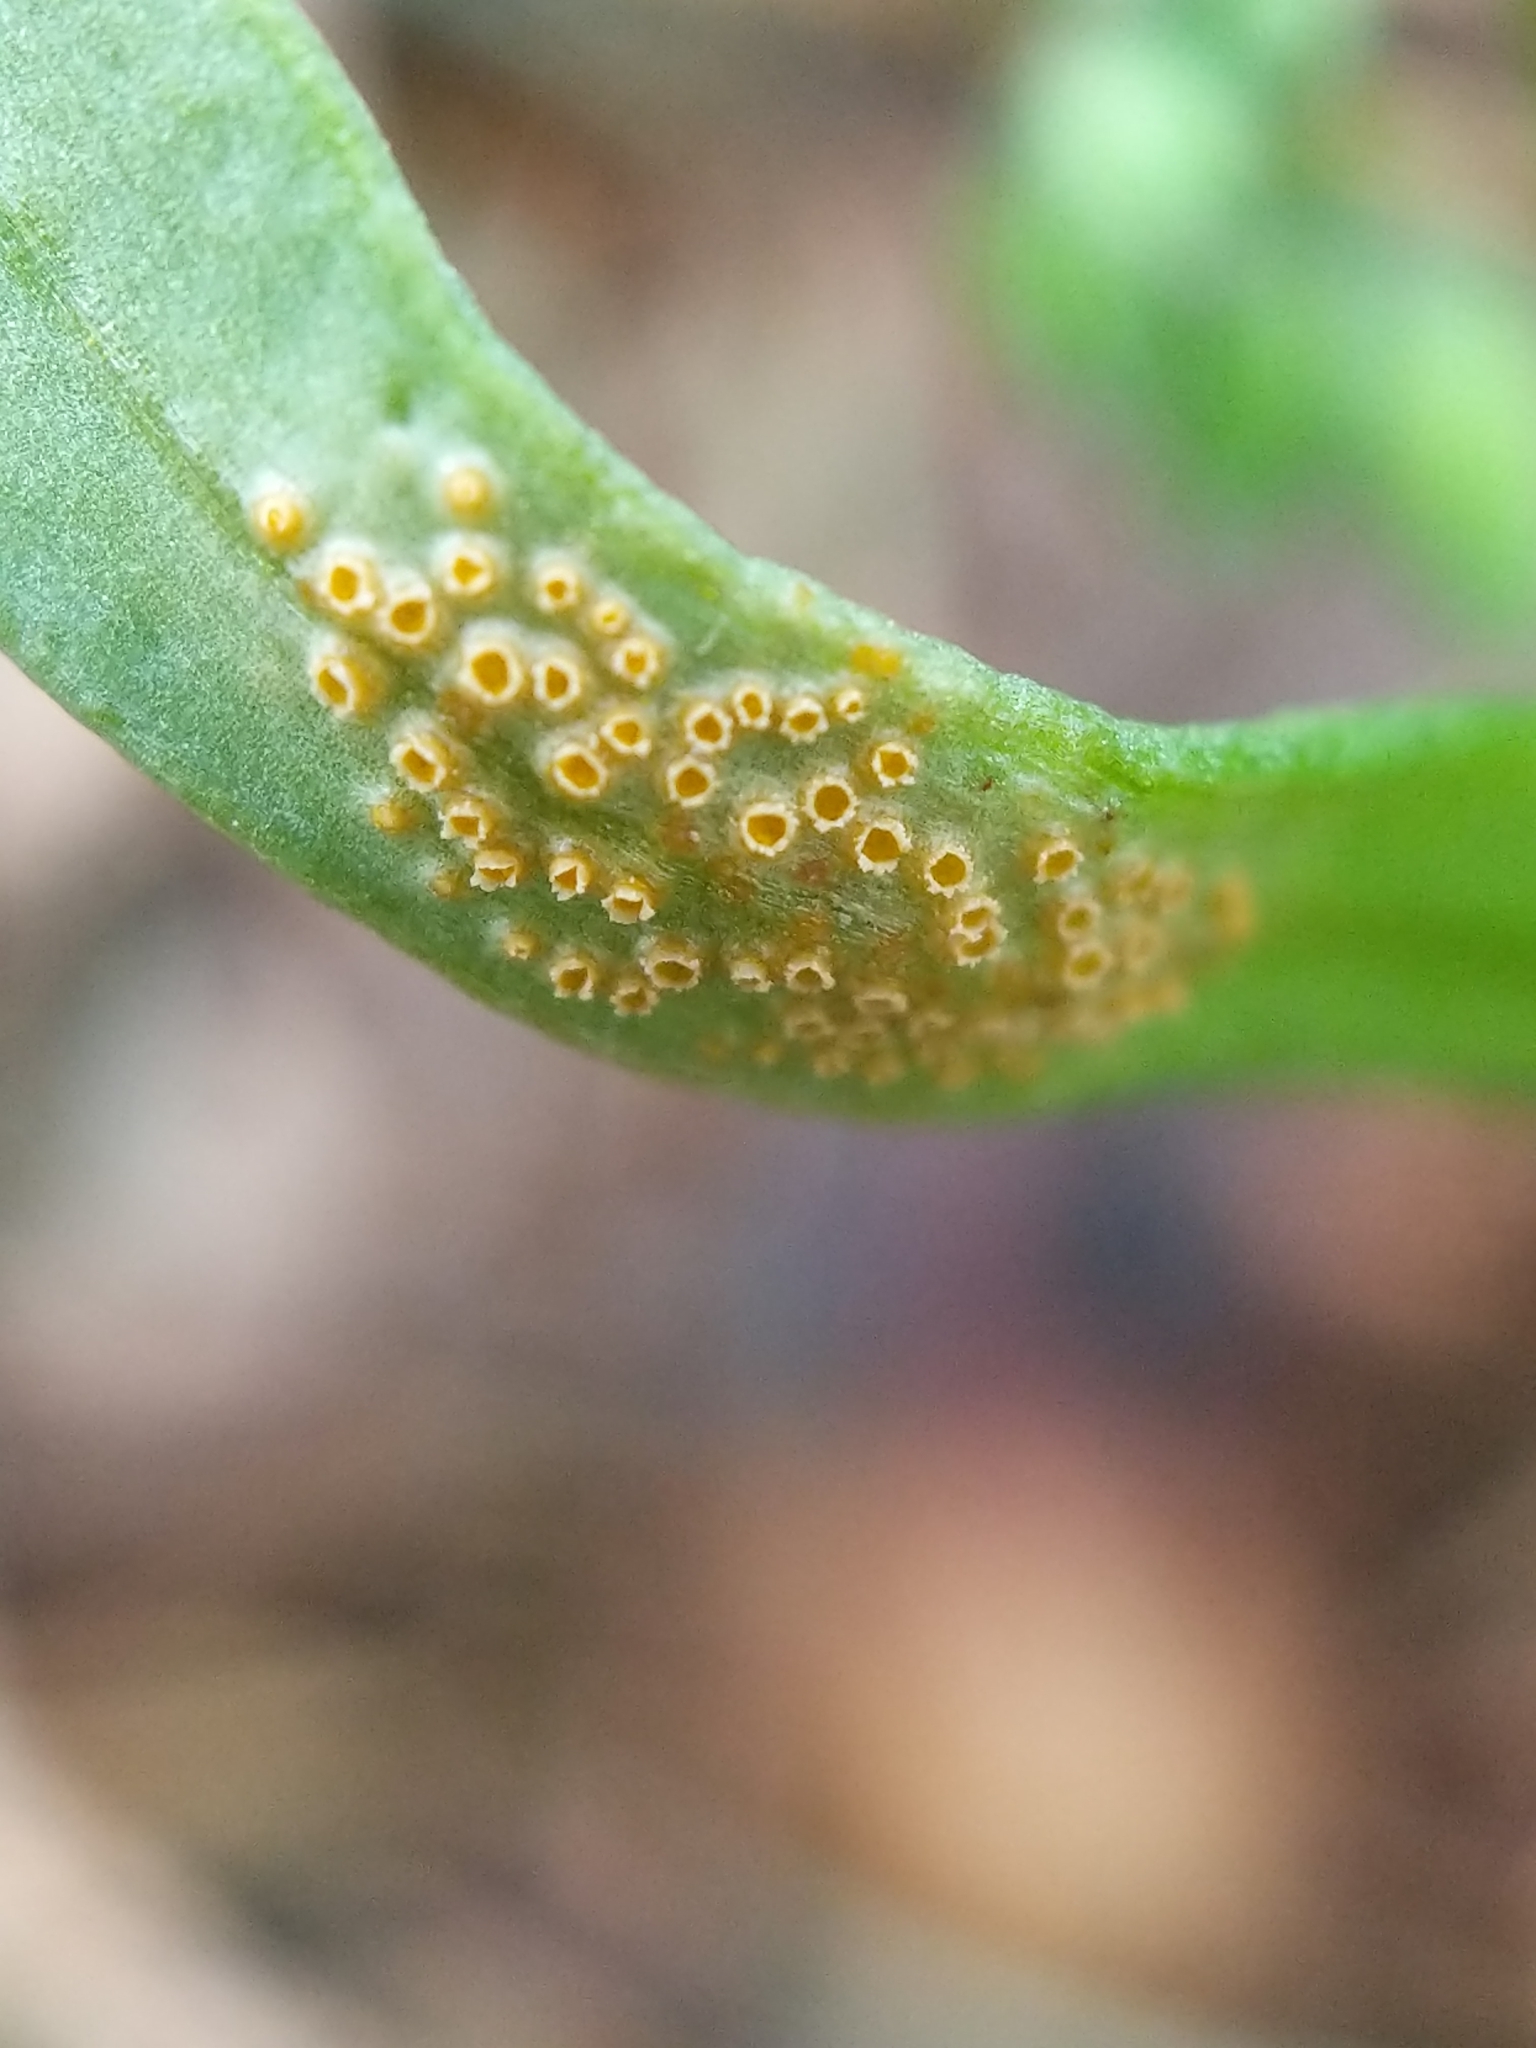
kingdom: Fungi
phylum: Basidiomycota
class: Pucciniomycetes
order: Pucciniales
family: Pucciniaceae
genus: Puccinia
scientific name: Puccinia mariae-wilsoniae
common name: Spring beauty rust
